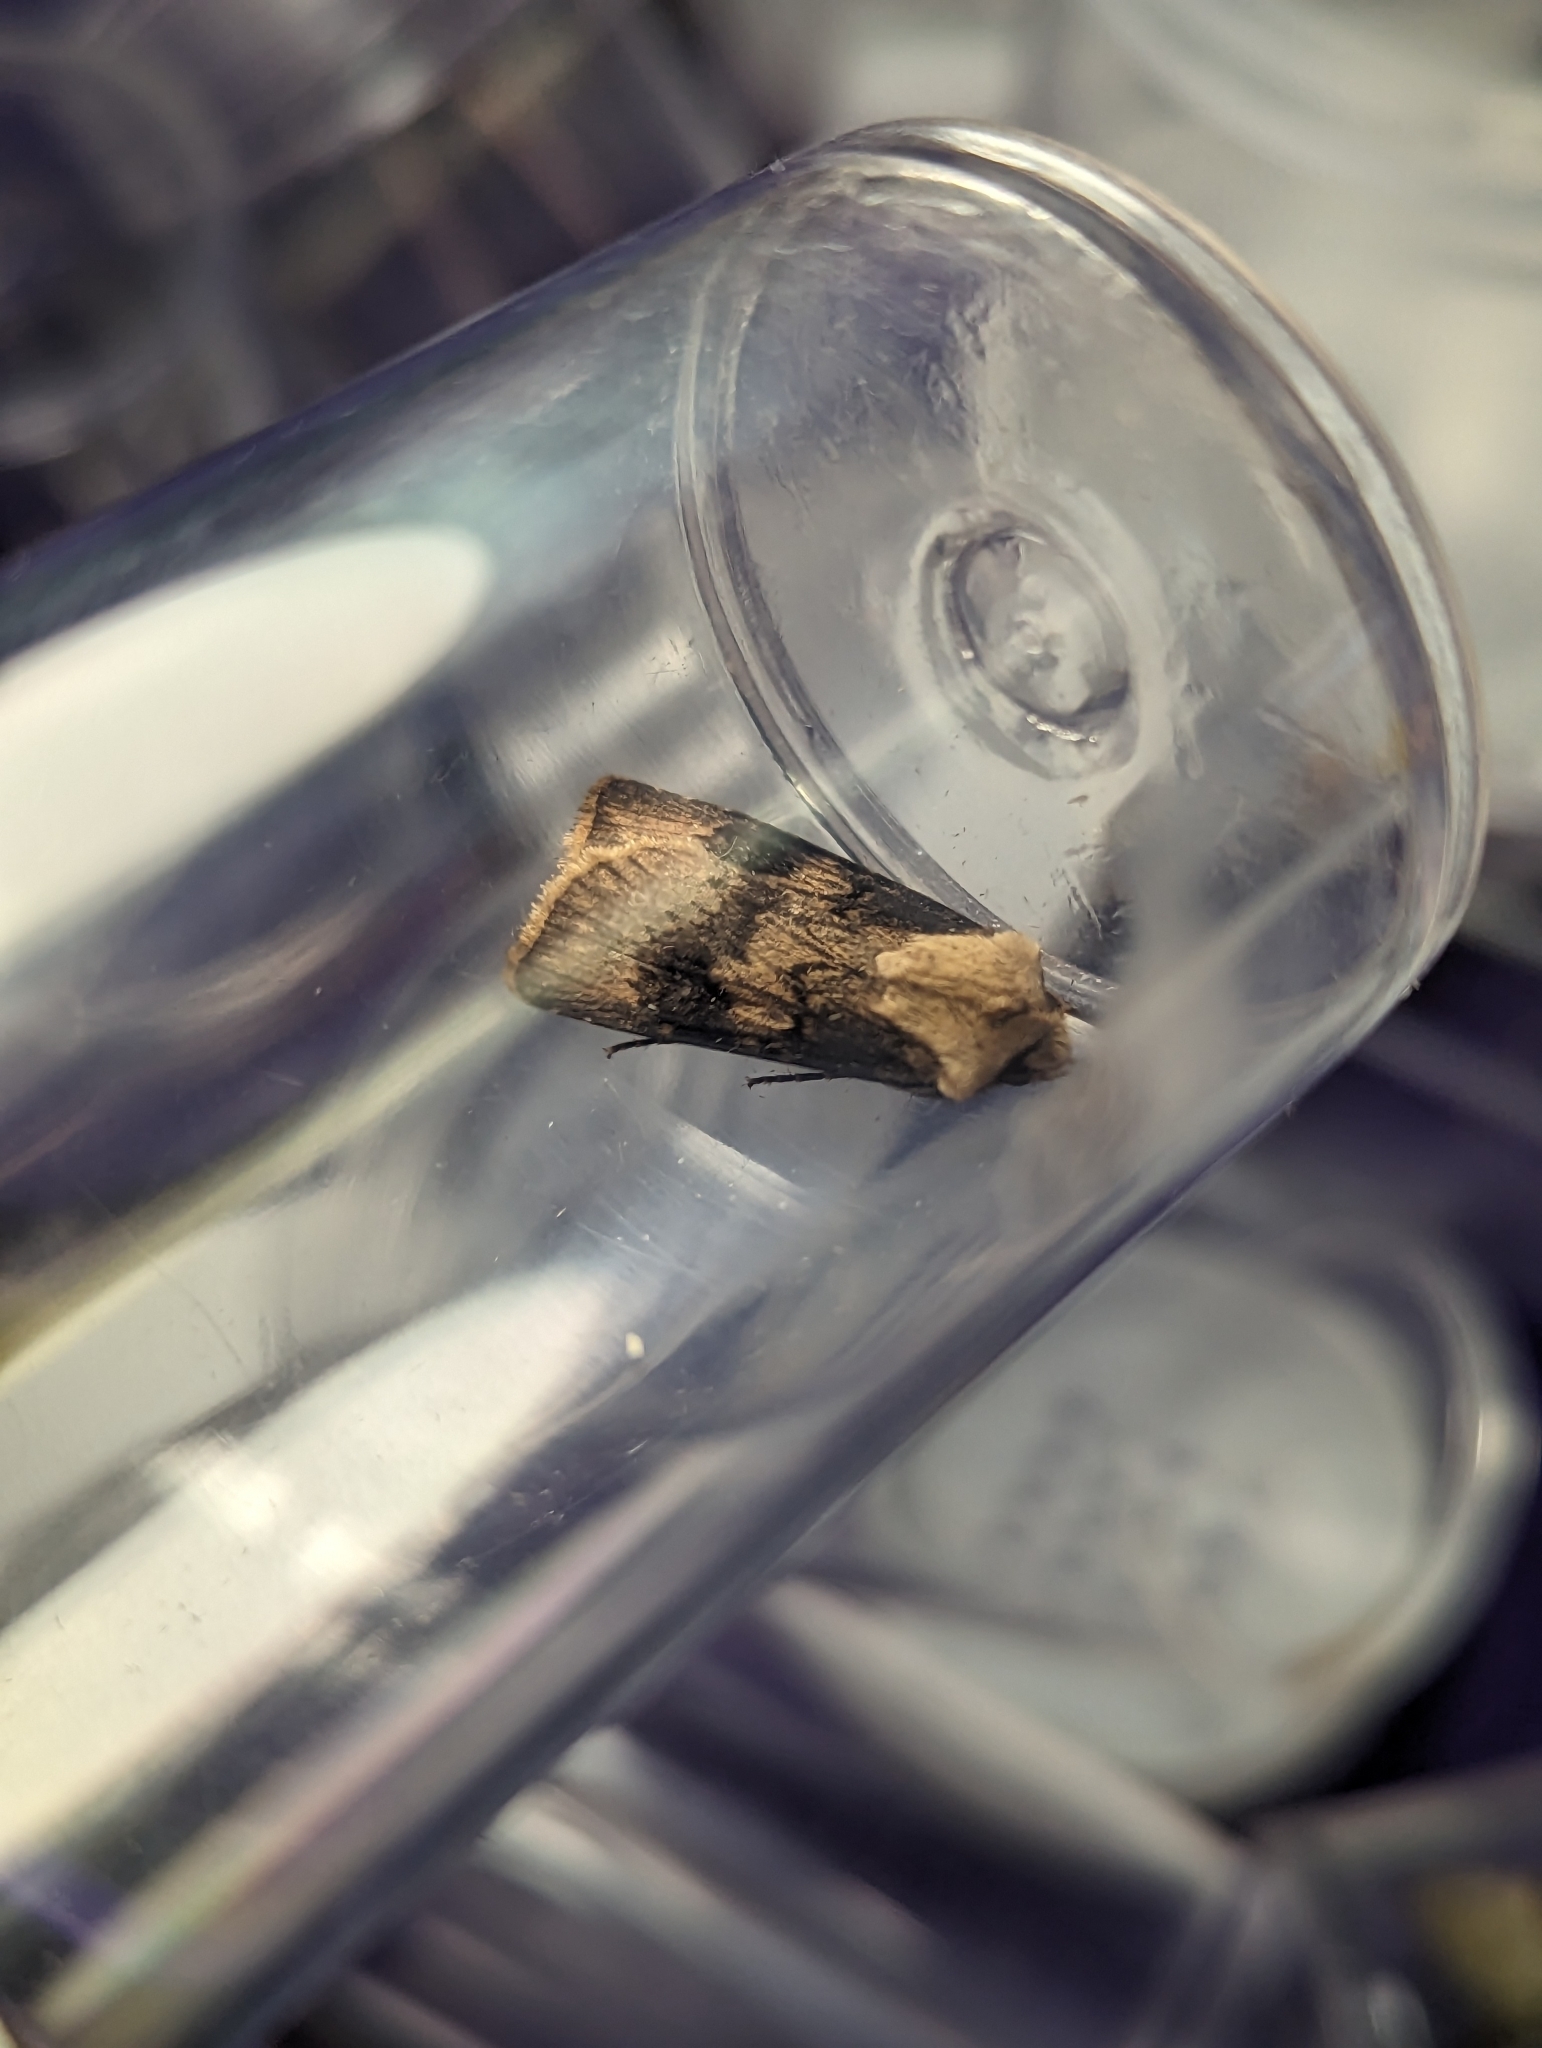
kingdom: Animalia
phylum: Arthropoda
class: Insecta
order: Lepidoptera
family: Noctuidae
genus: Agrotis
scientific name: Agrotis puta
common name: Shuttle-shaped dart
